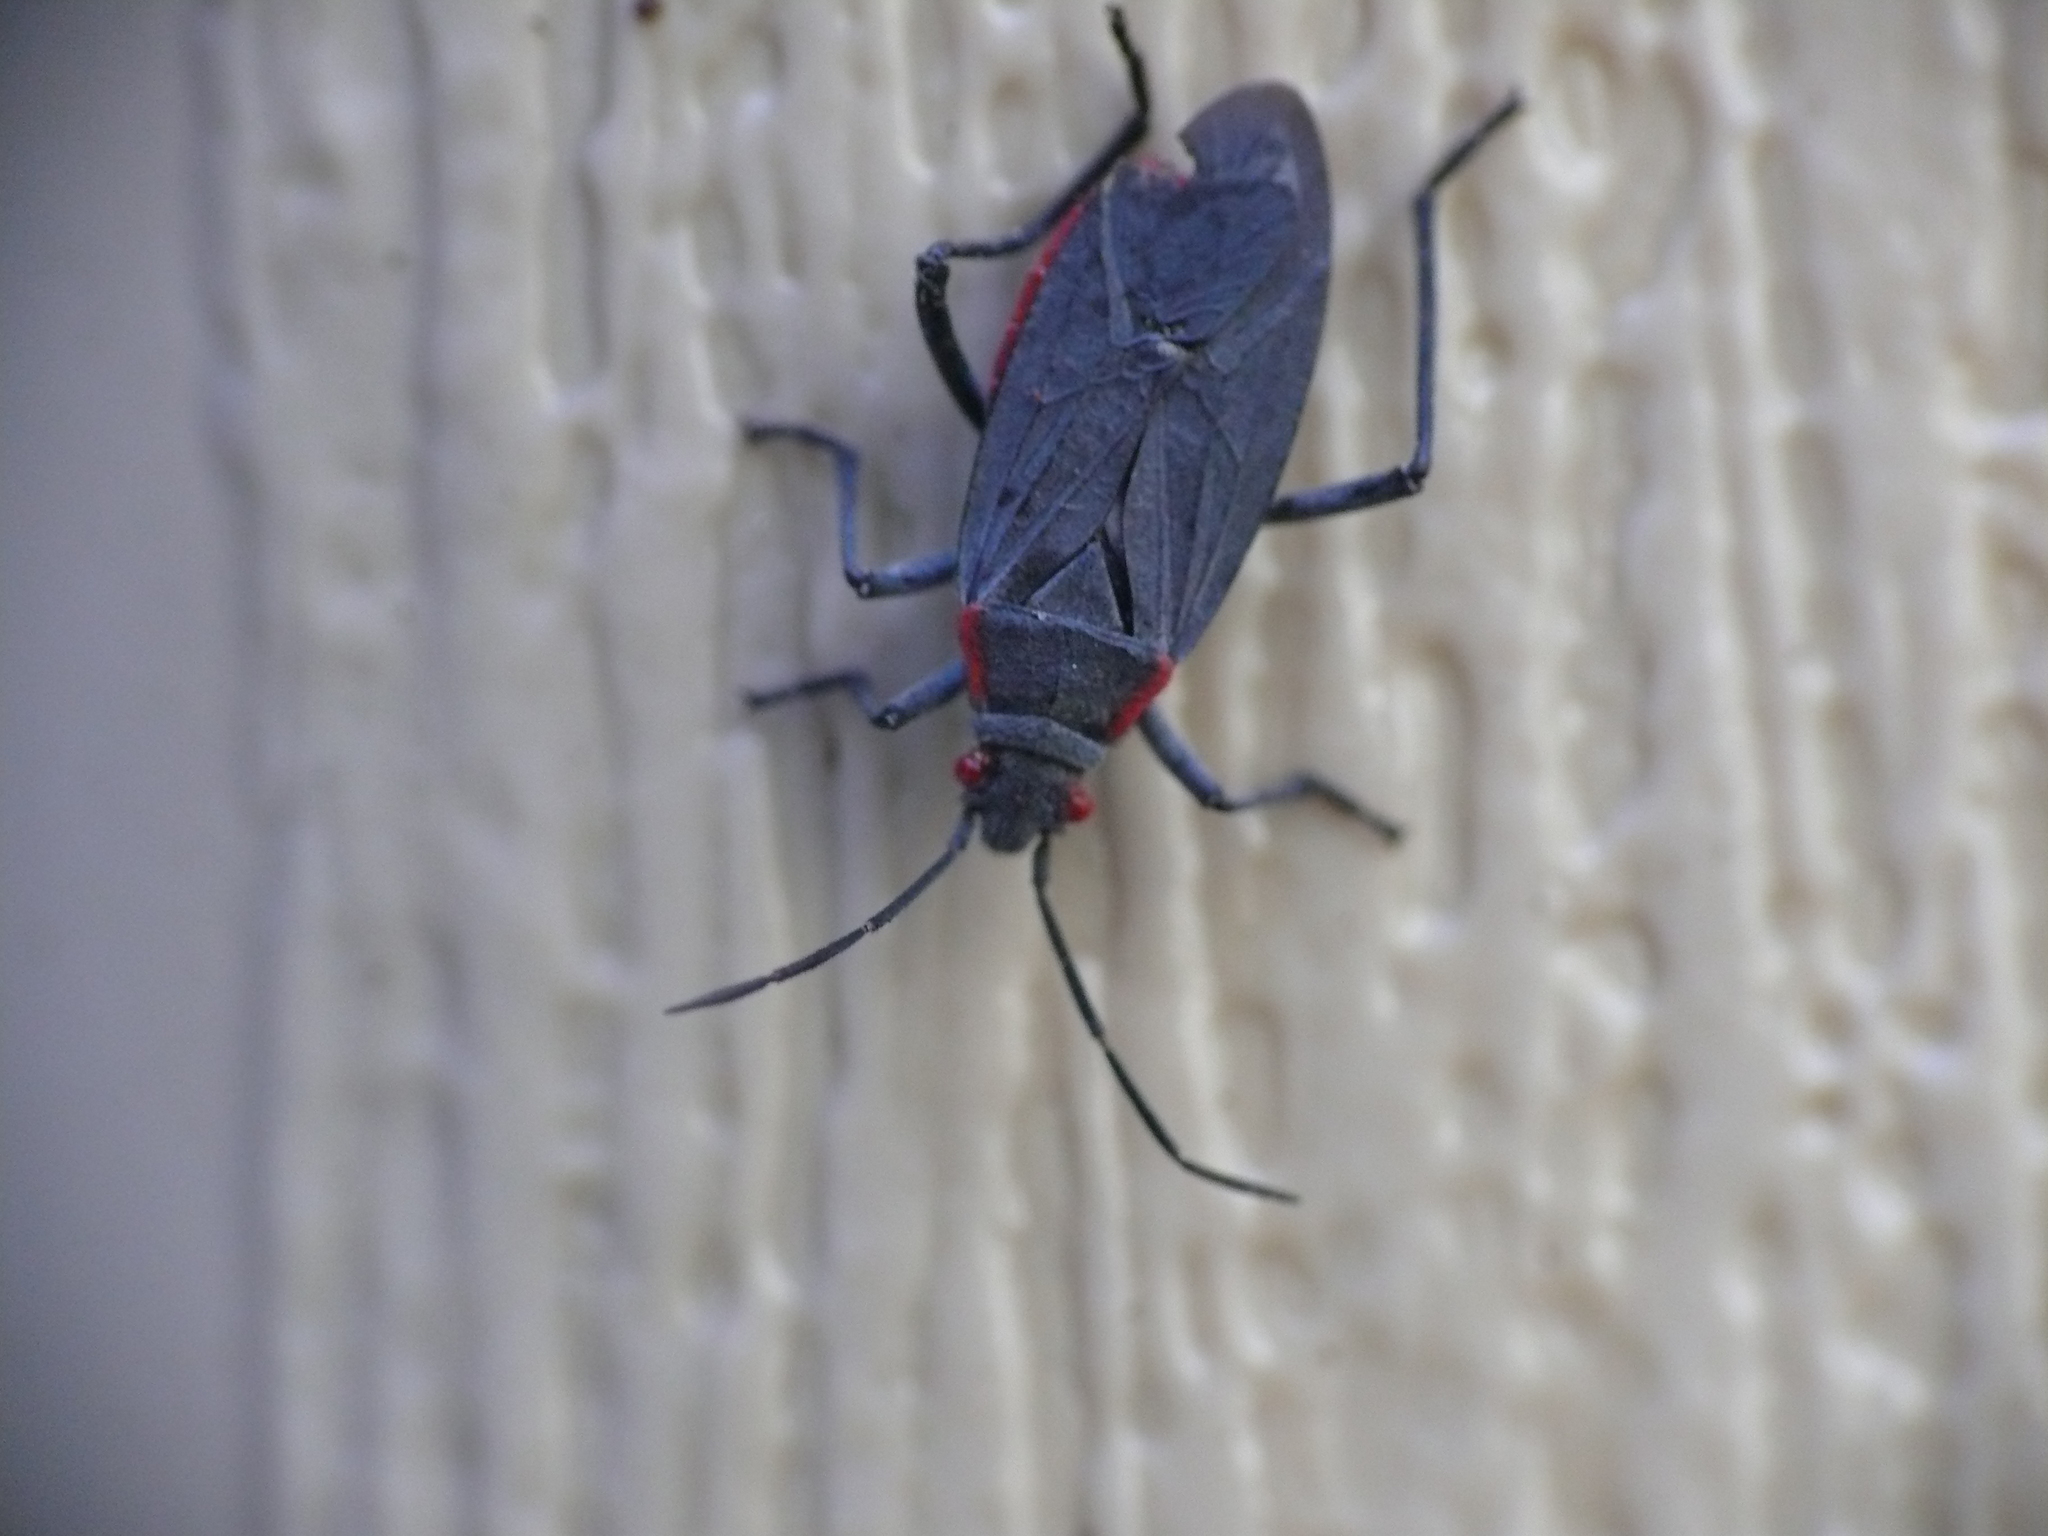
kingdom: Animalia
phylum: Arthropoda
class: Insecta
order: Hemiptera
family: Rhopalidae
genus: Jadera
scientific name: Jadera haematoloma
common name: Red-shouldered bug
